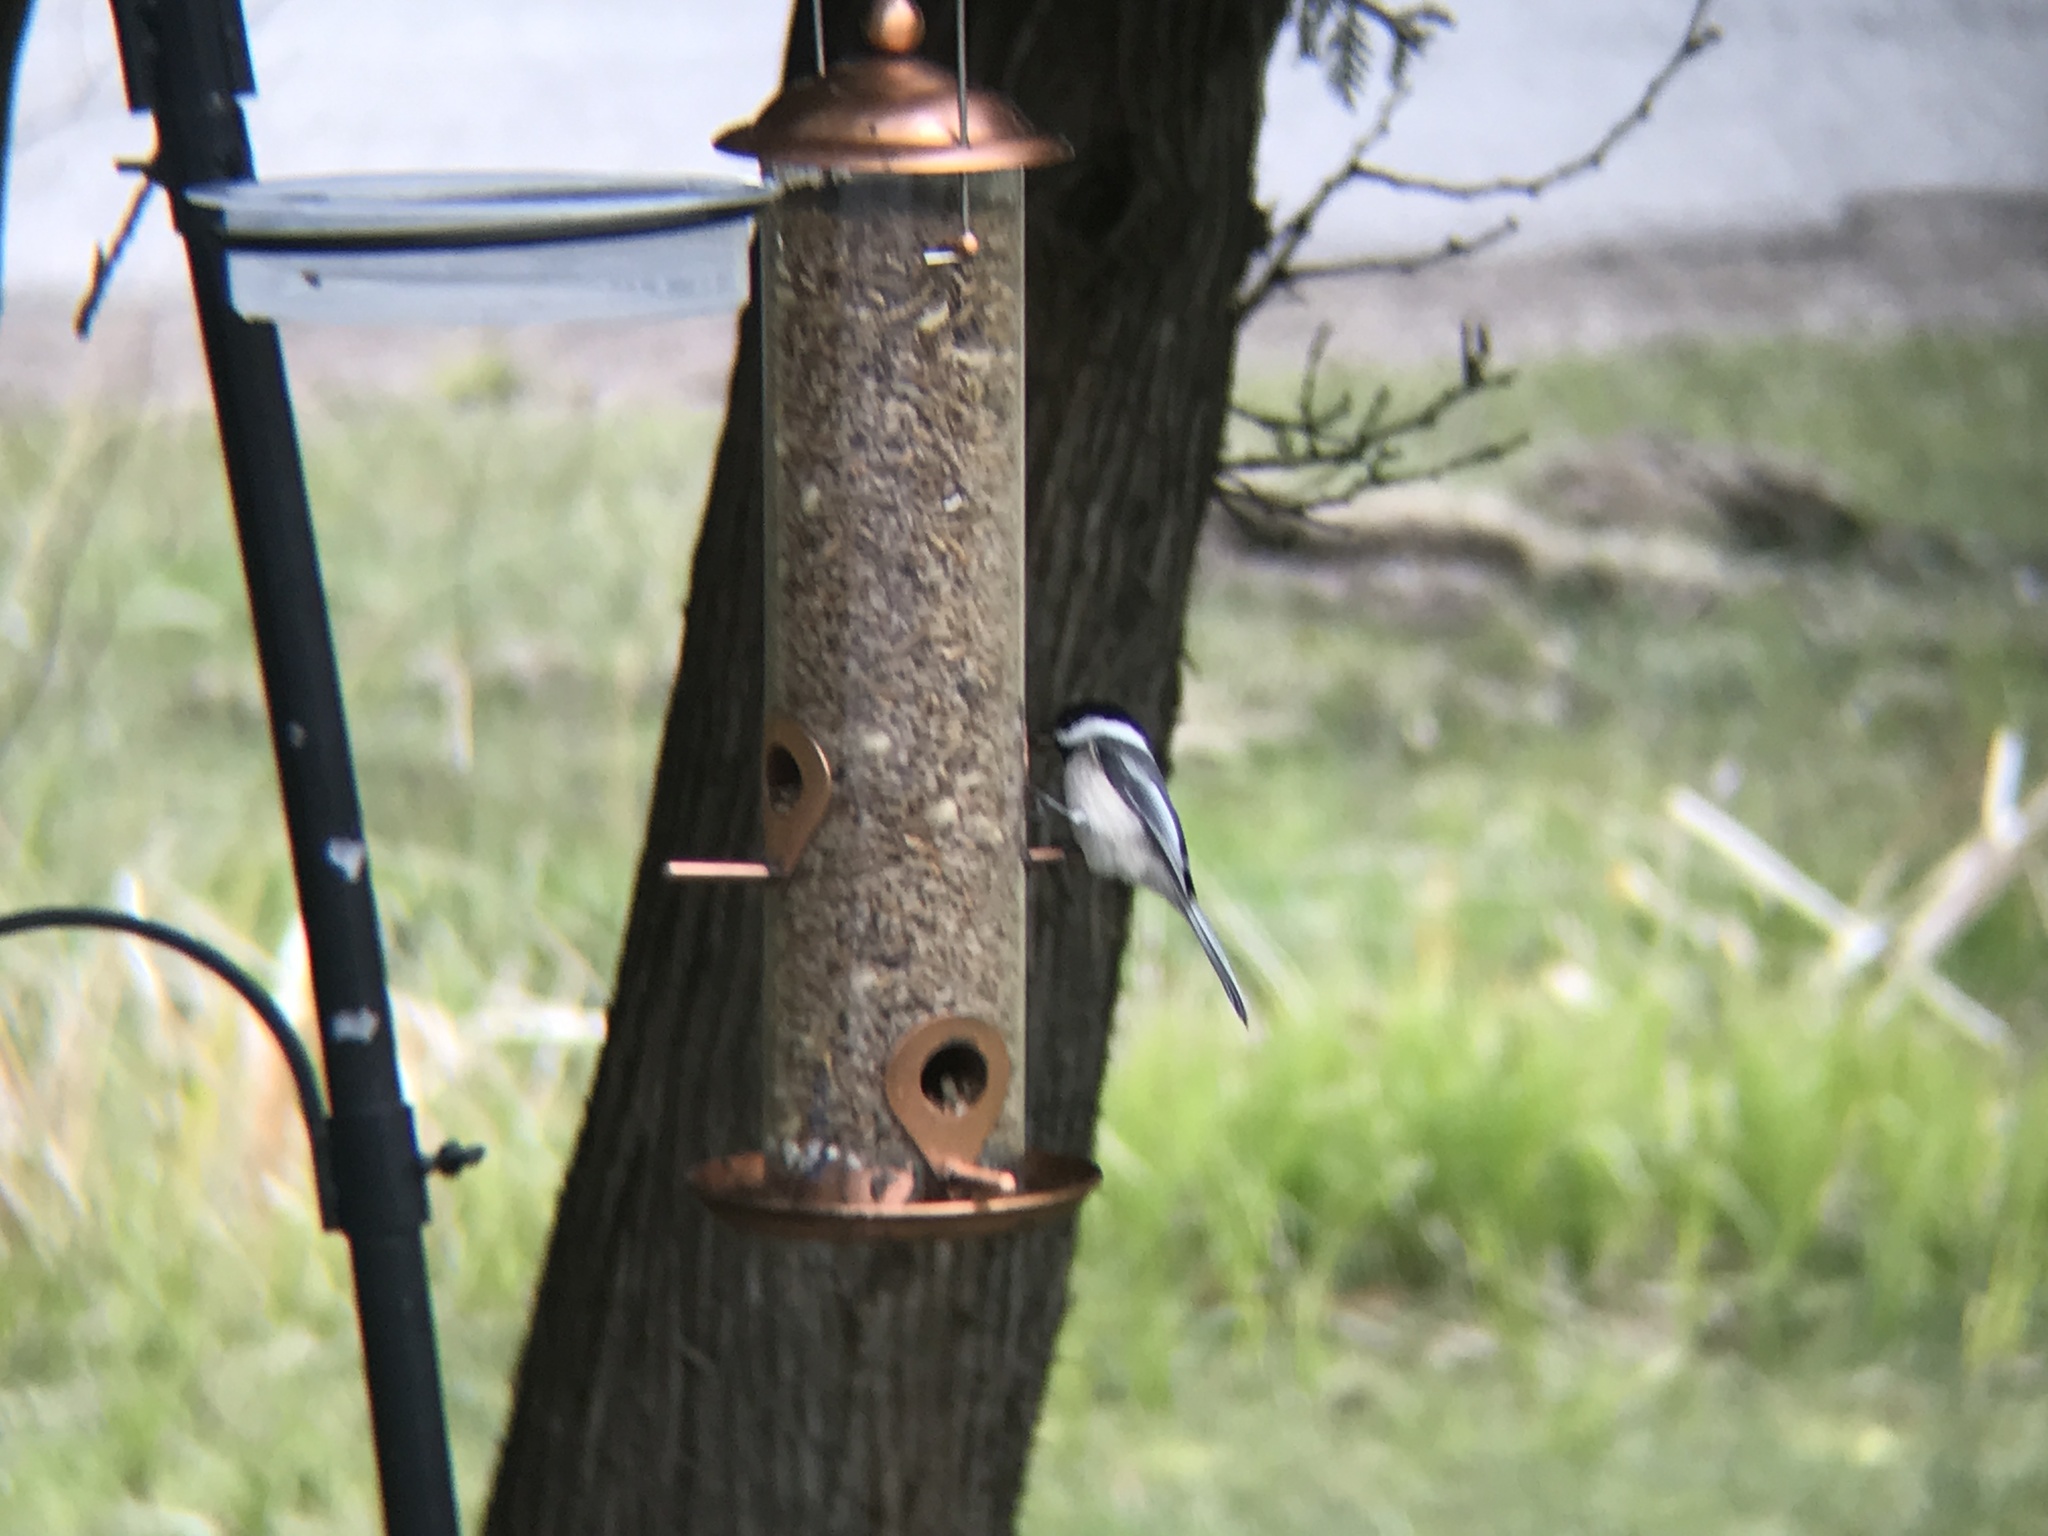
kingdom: Animalia
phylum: Chordata
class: Aves
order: Passeriformes
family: Paridae
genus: Poecile
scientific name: Poecile atricapillus
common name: Black-capped chickadee
